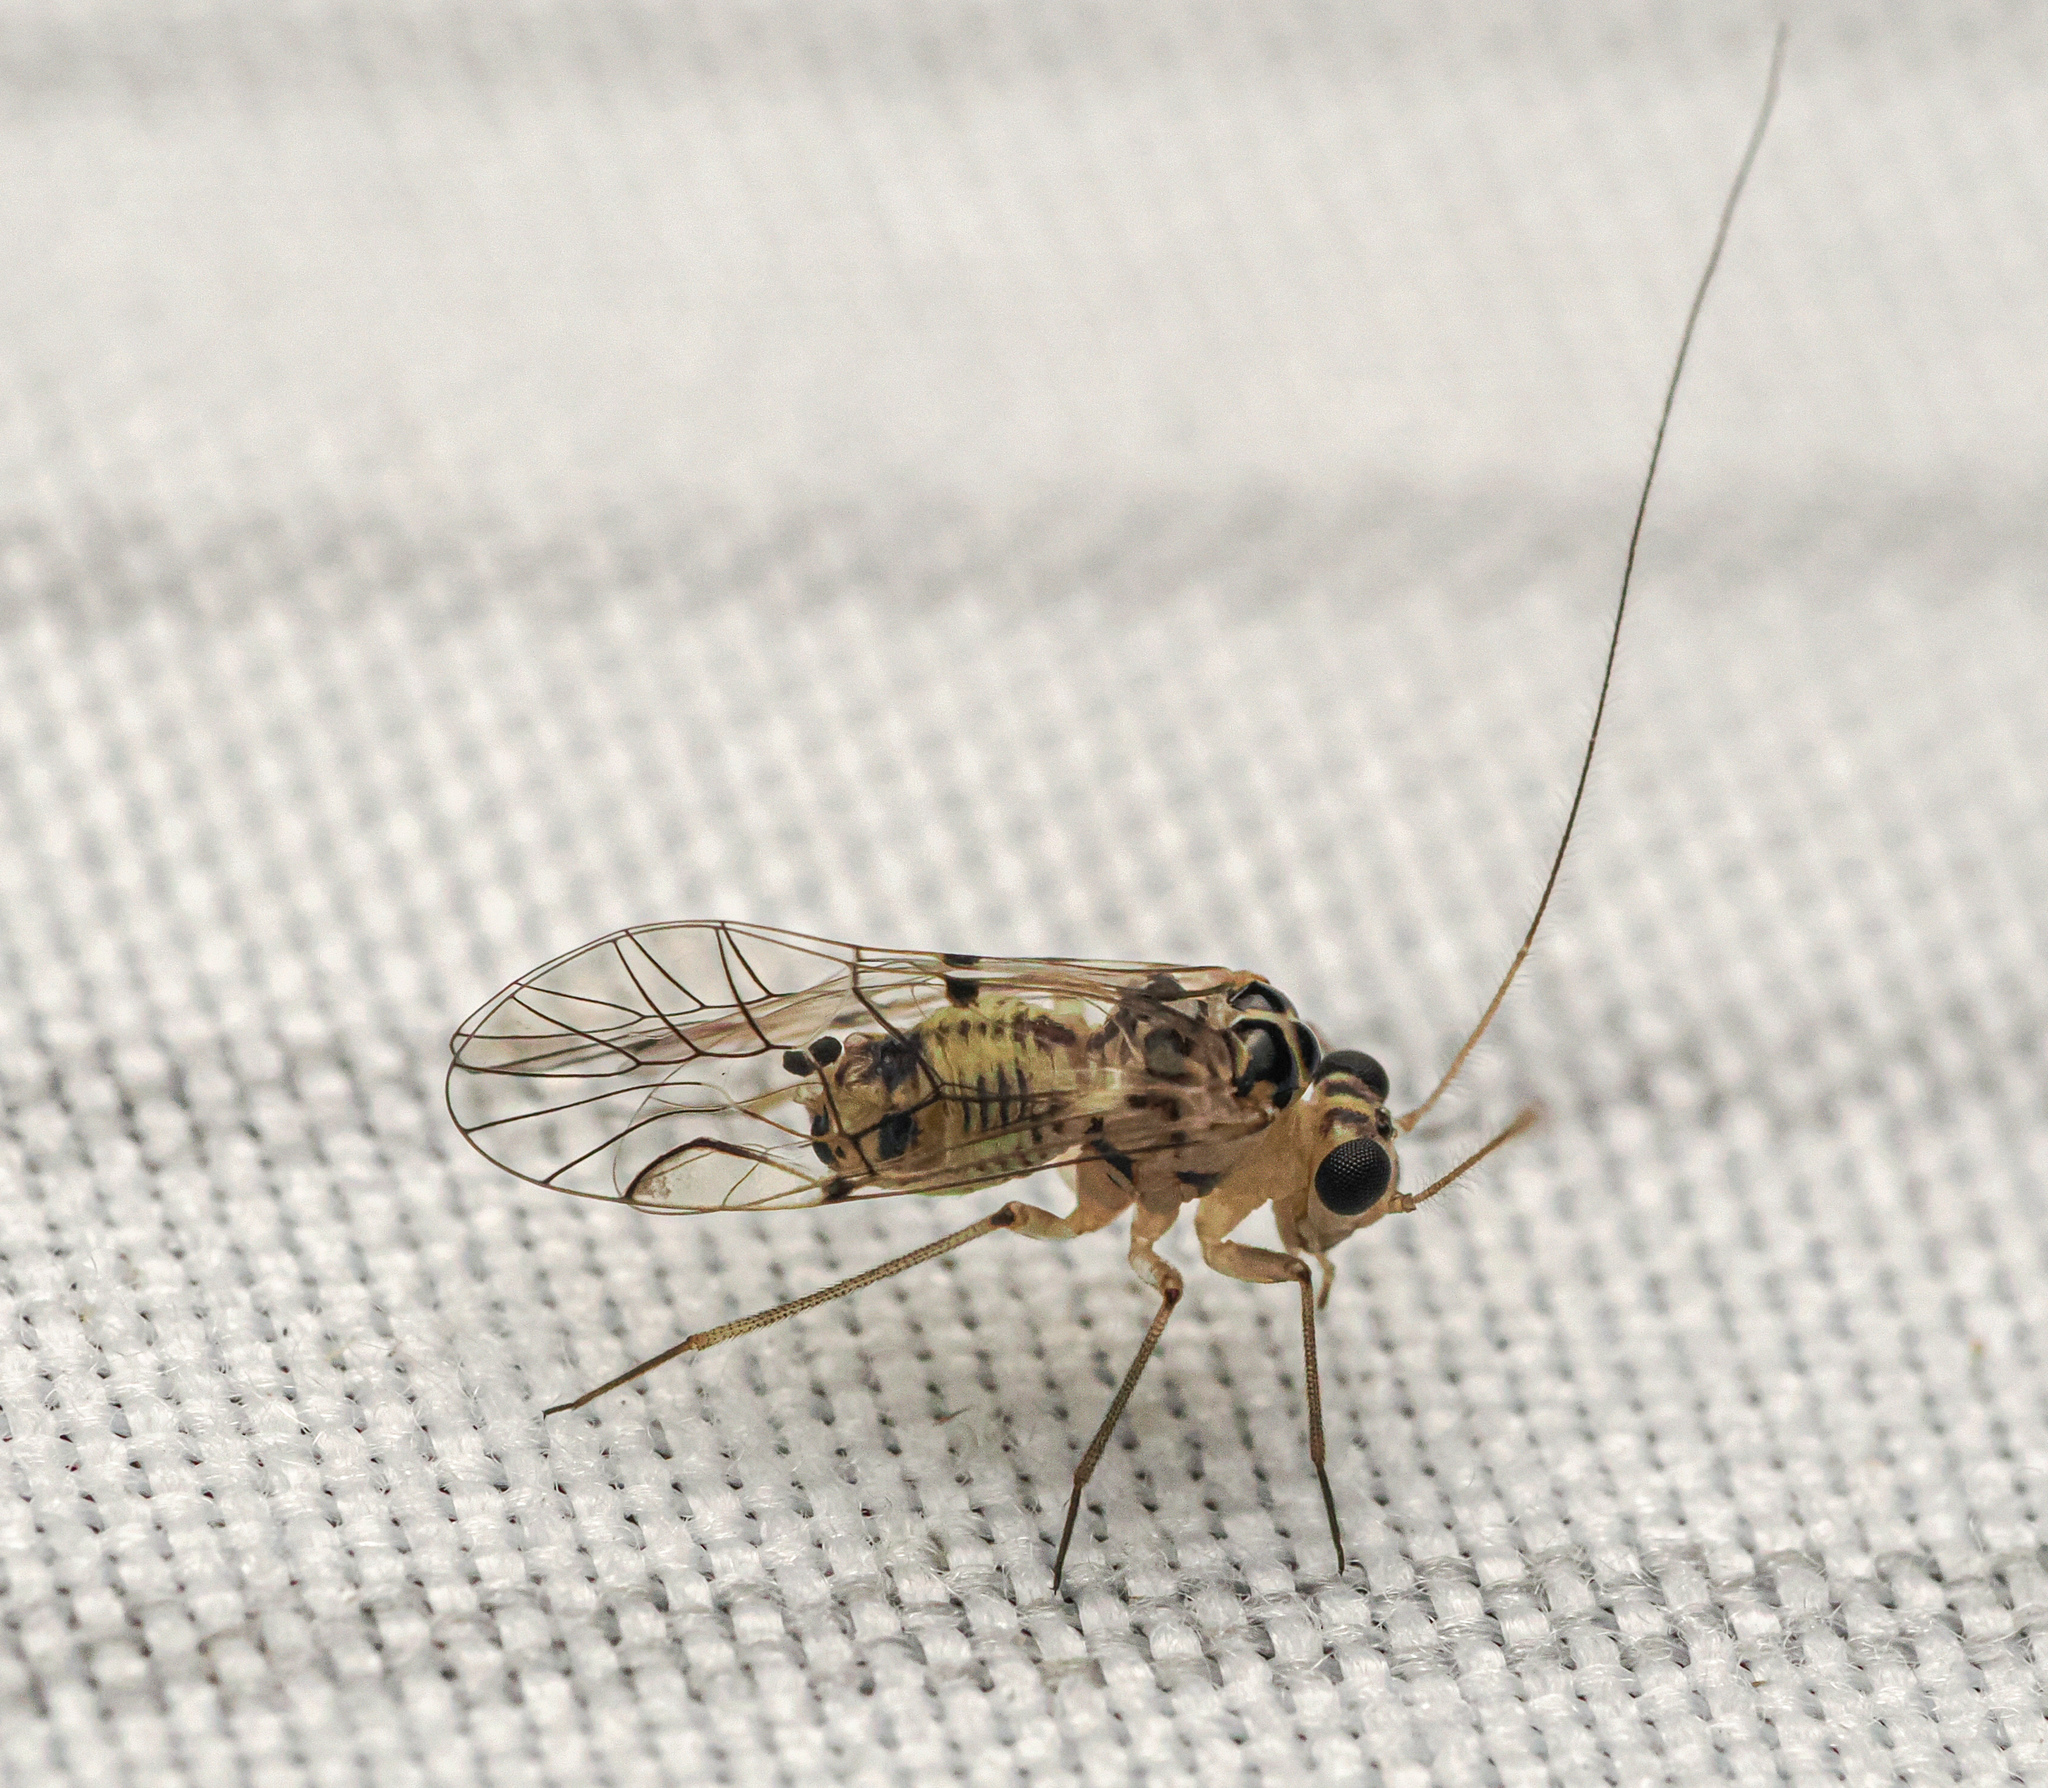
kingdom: Animalia
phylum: Arthropoda
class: Insecta
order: Psocodea
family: Psocidae
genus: Metylophorus
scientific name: Metylophorus purus
